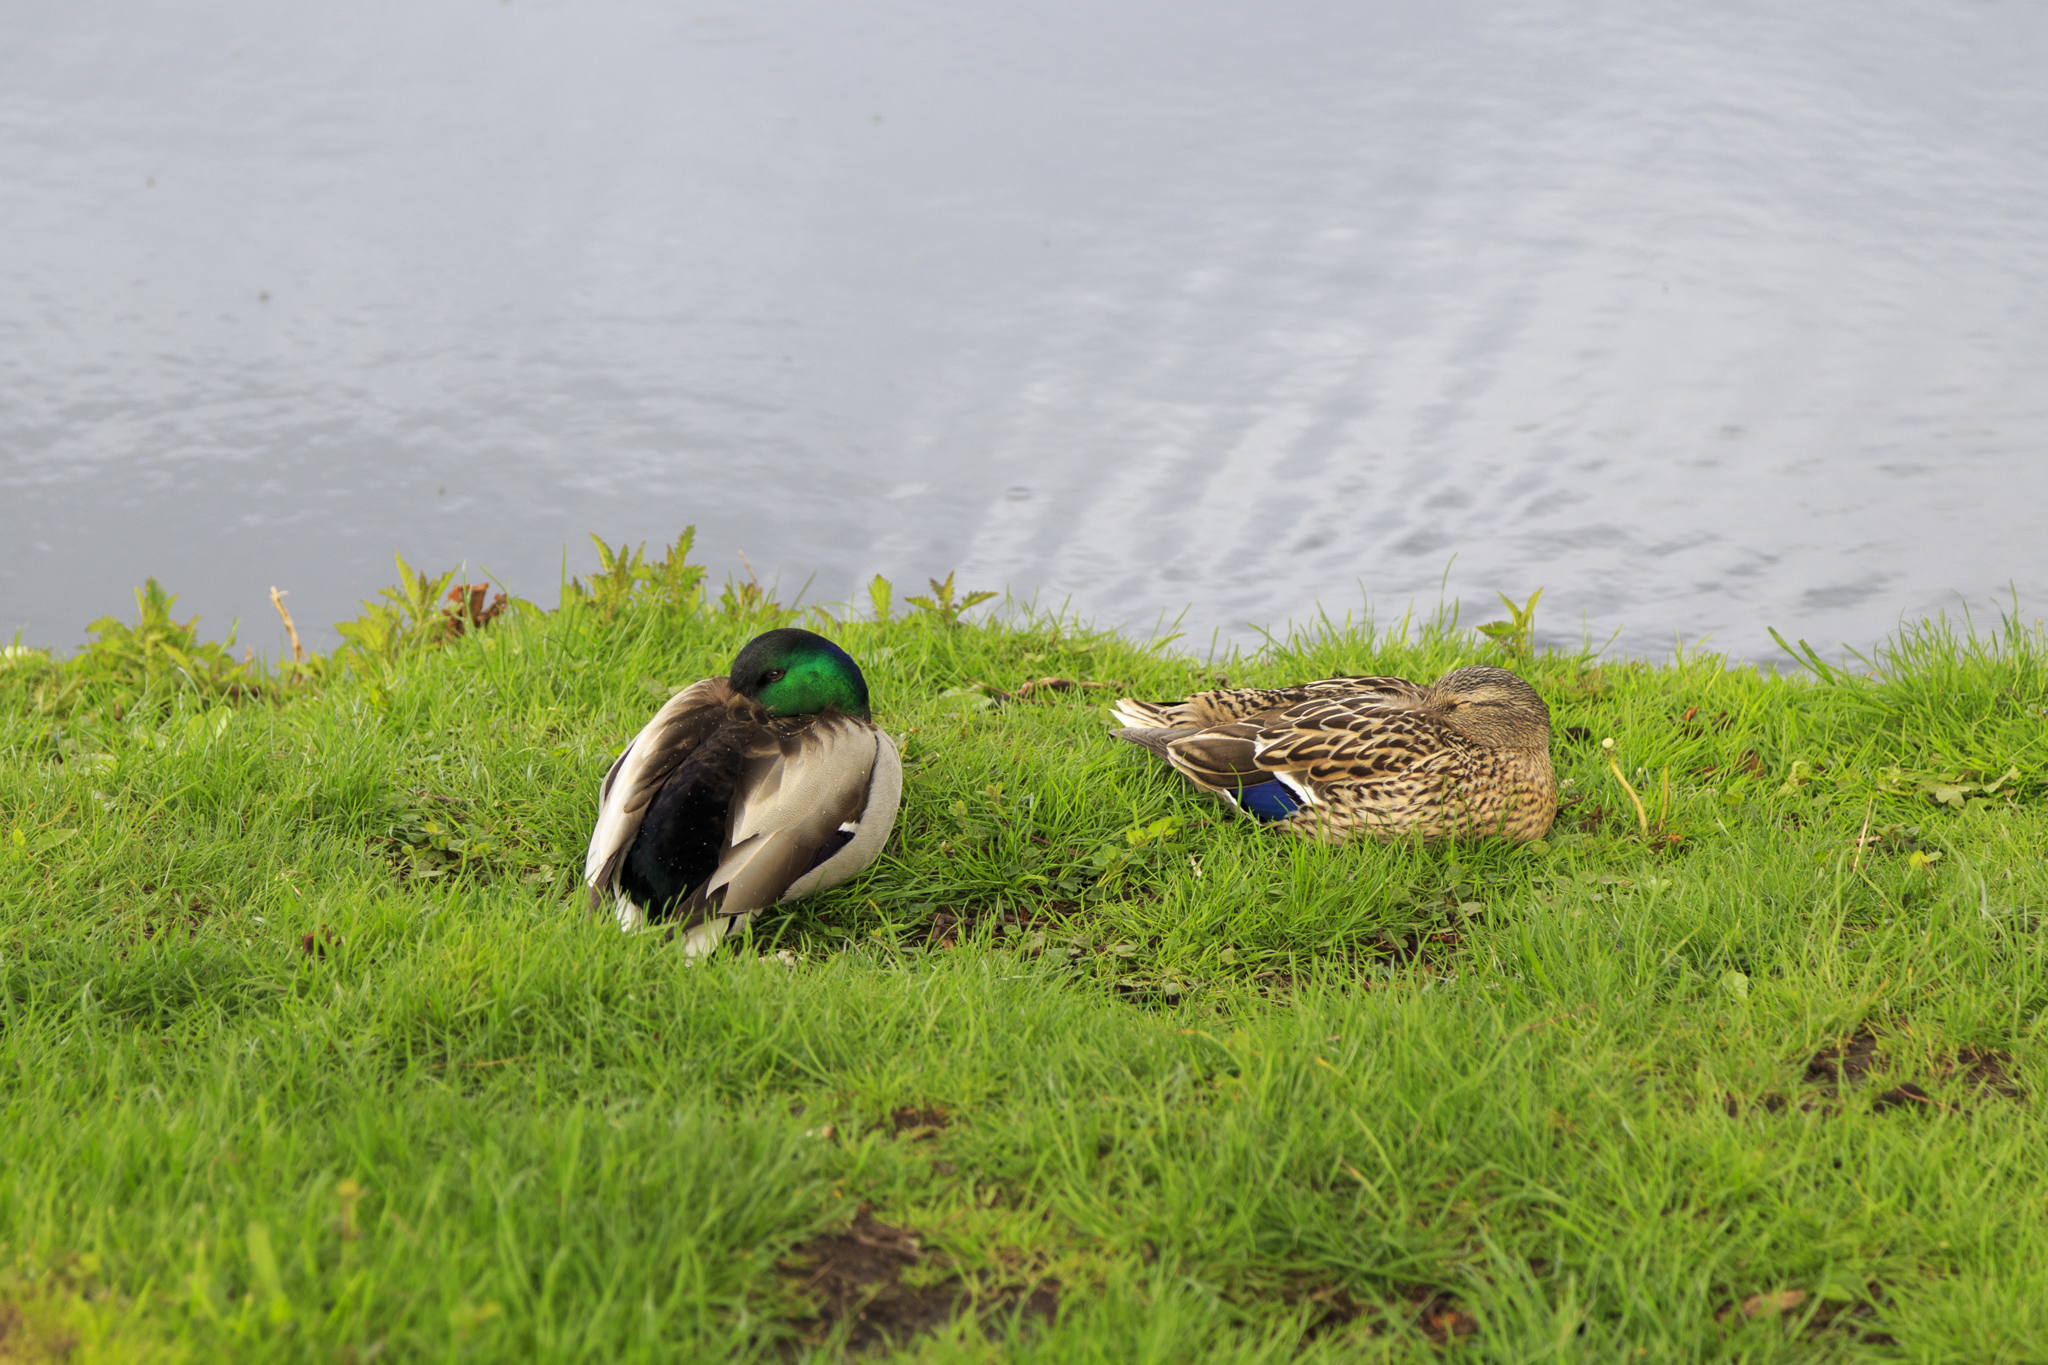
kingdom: Animalia
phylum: Chordata
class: Aves
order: Anseriformes
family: Anatidae
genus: Anas
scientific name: Anas platyrhynchos
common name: Mallard
